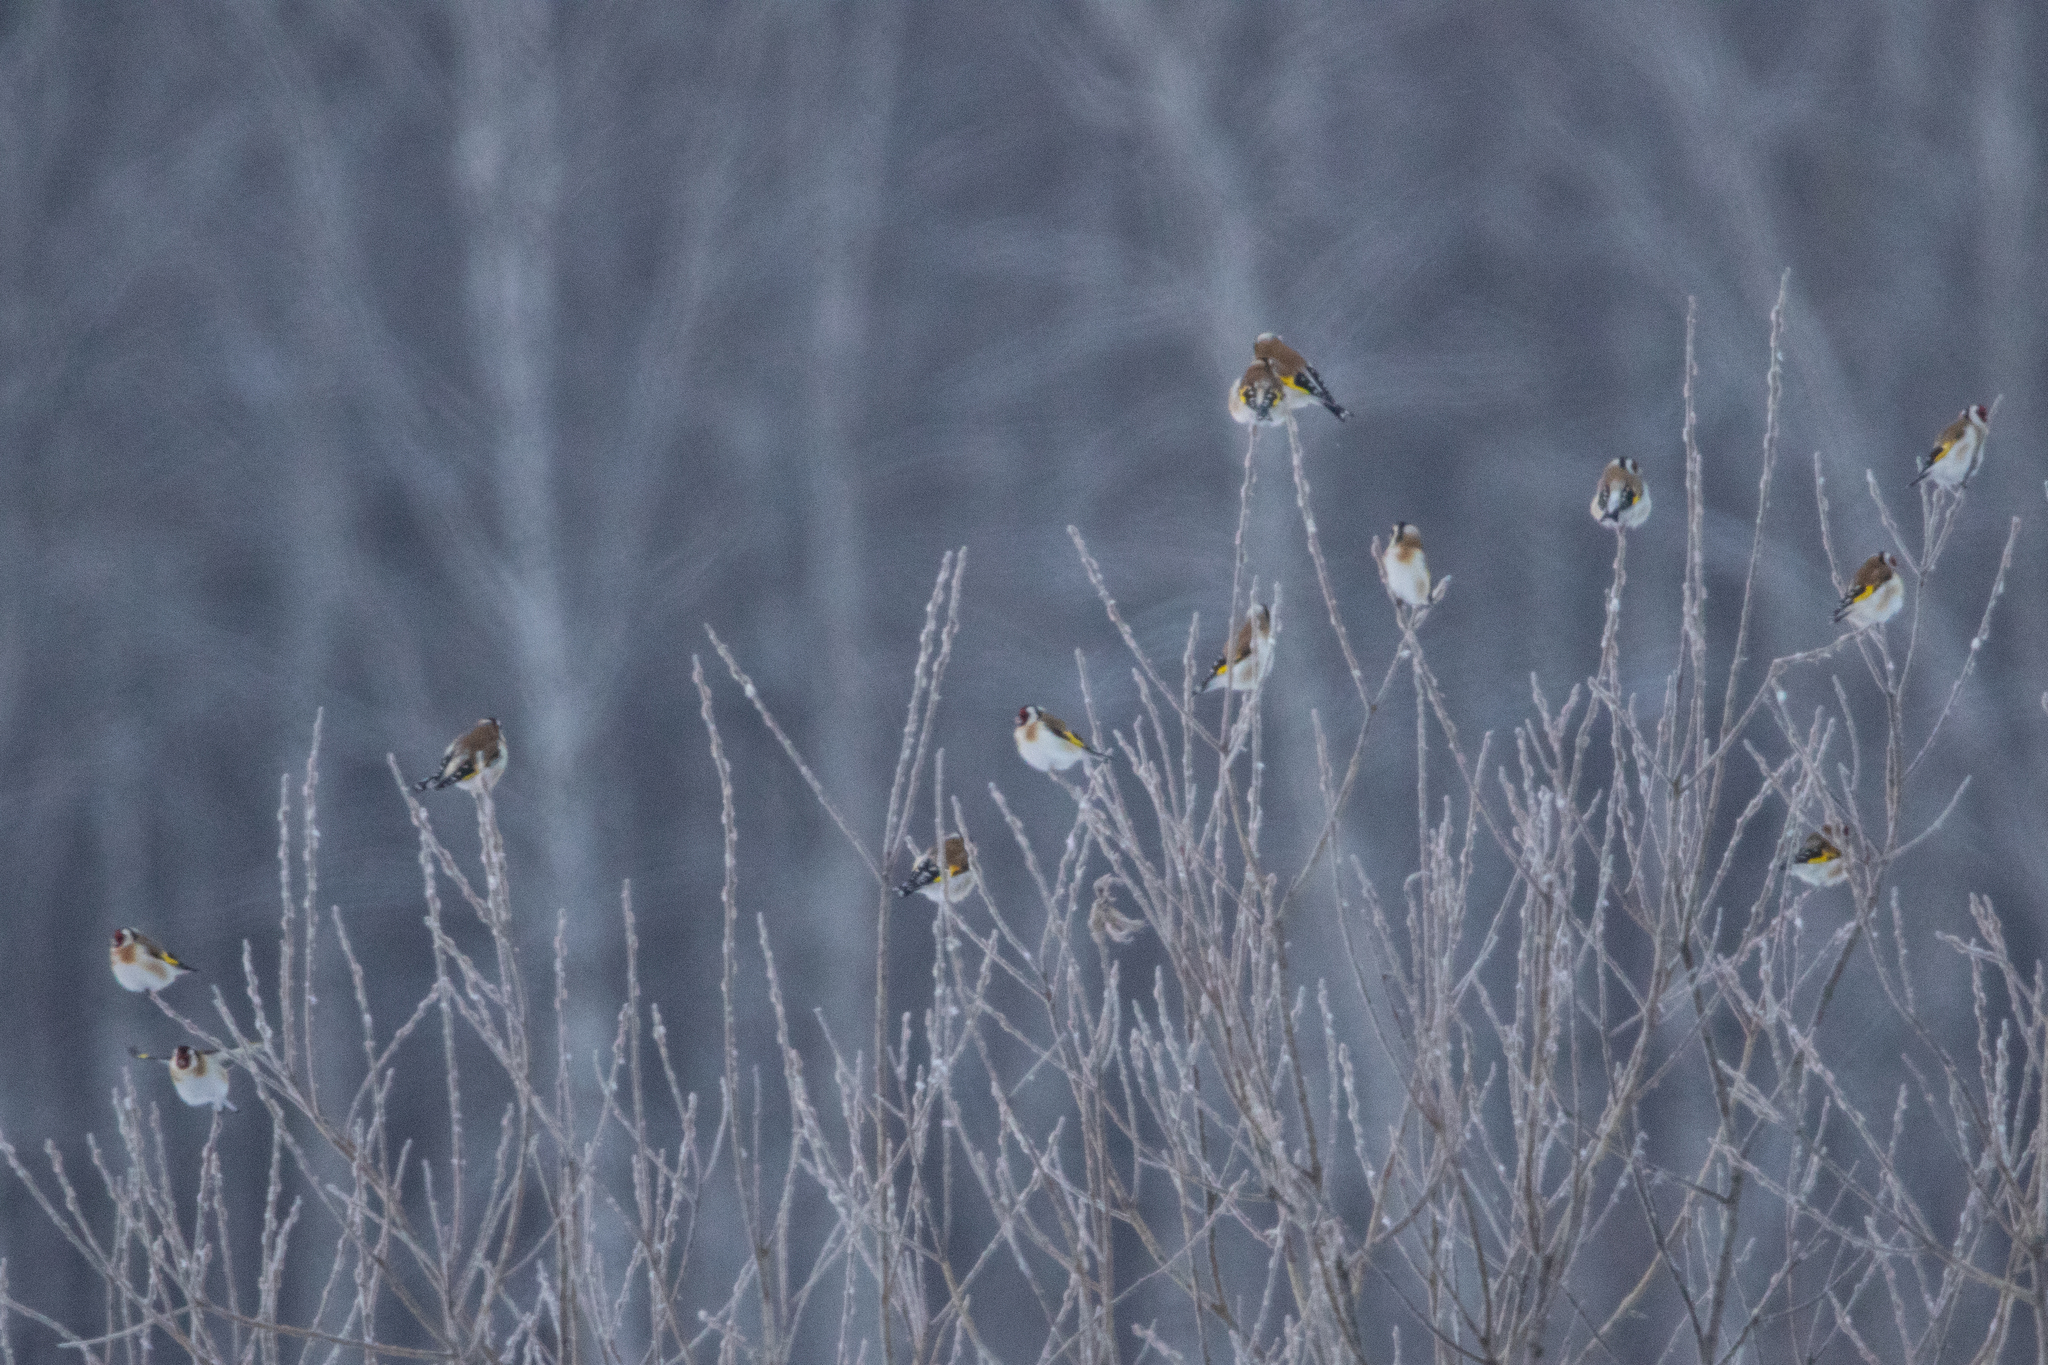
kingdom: Animalia
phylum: Chordata
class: Aves
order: Passeriformes
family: Fringillidae
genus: Carduelis
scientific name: Carduelis carduelis
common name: European goldfinch
